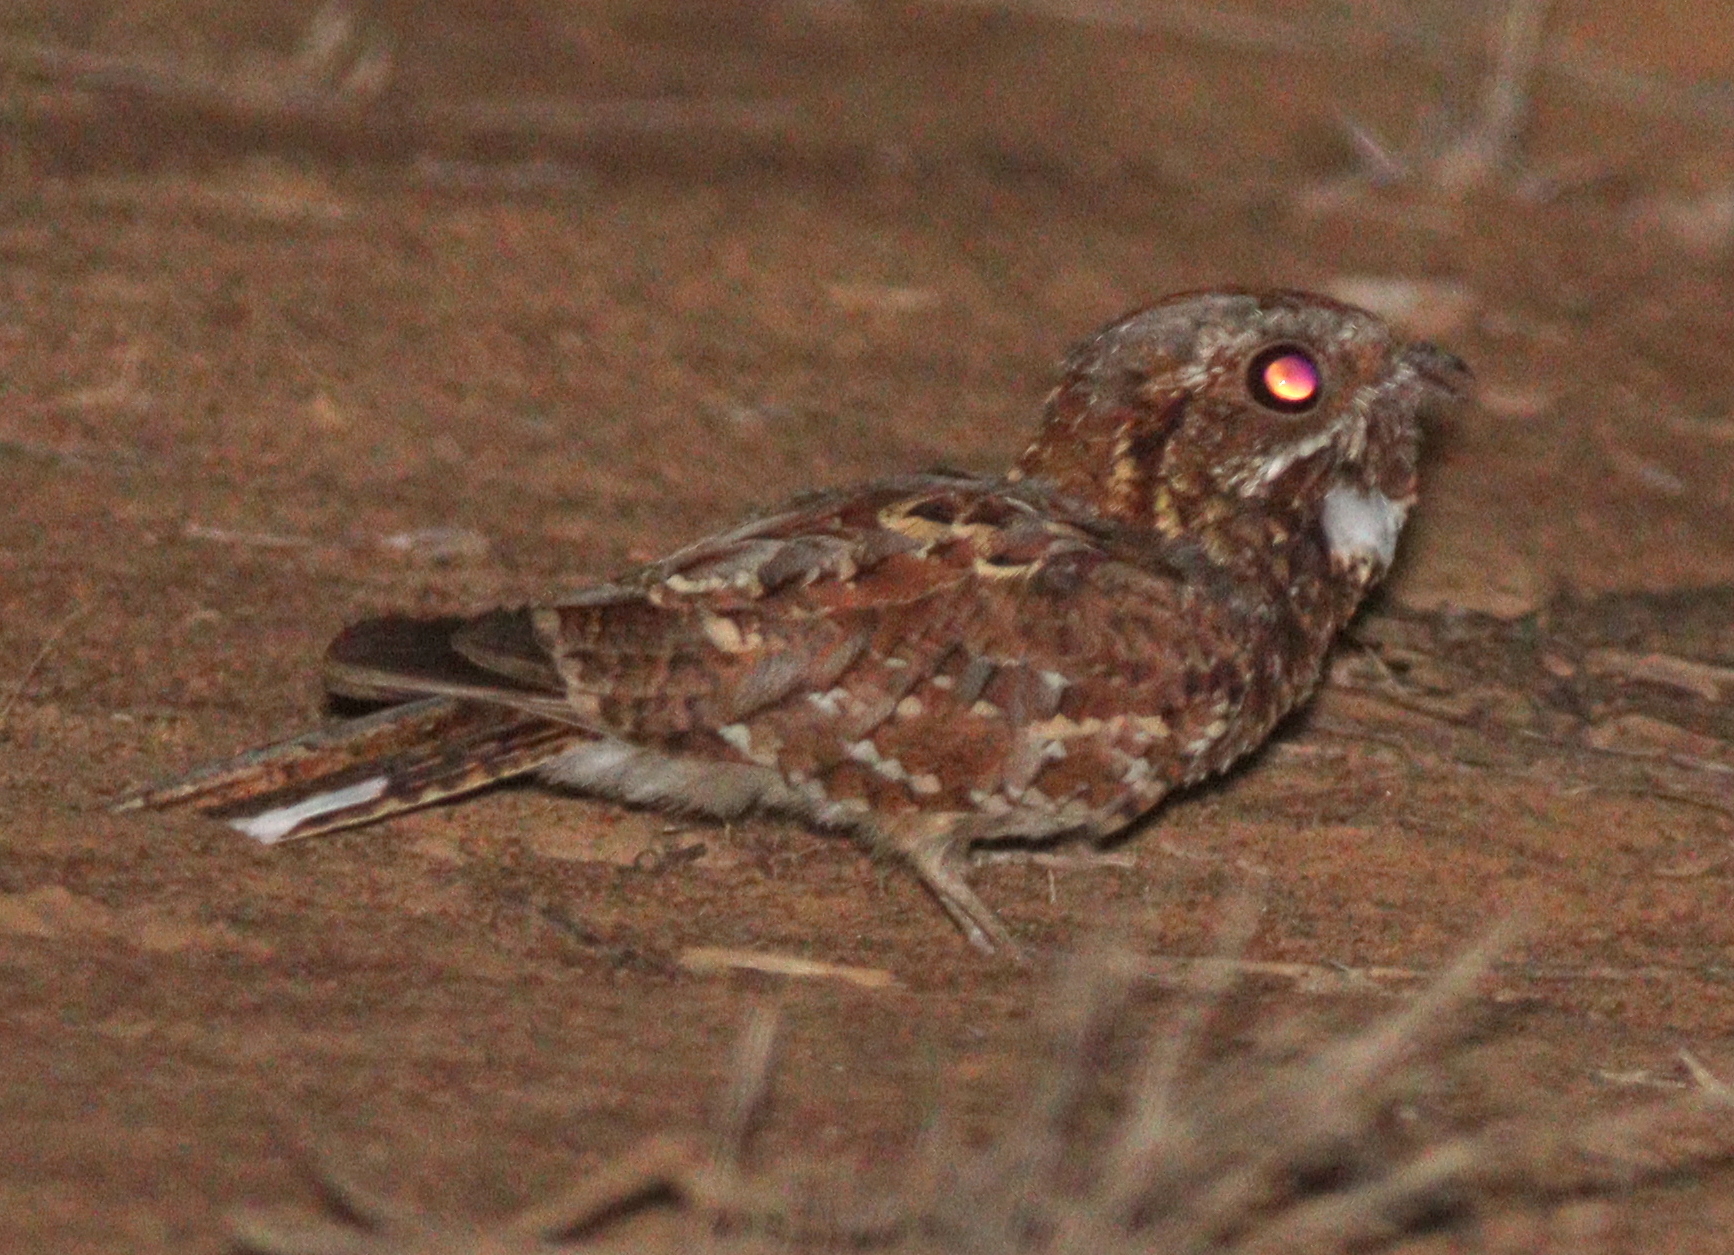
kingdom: Animalia
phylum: Chordata
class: Aves
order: Caprimulgiformes
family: Caprimulgidae
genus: Caprimulgus
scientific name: Caprimulgus donaldsoni
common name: Donaldson-smith's nightjar
